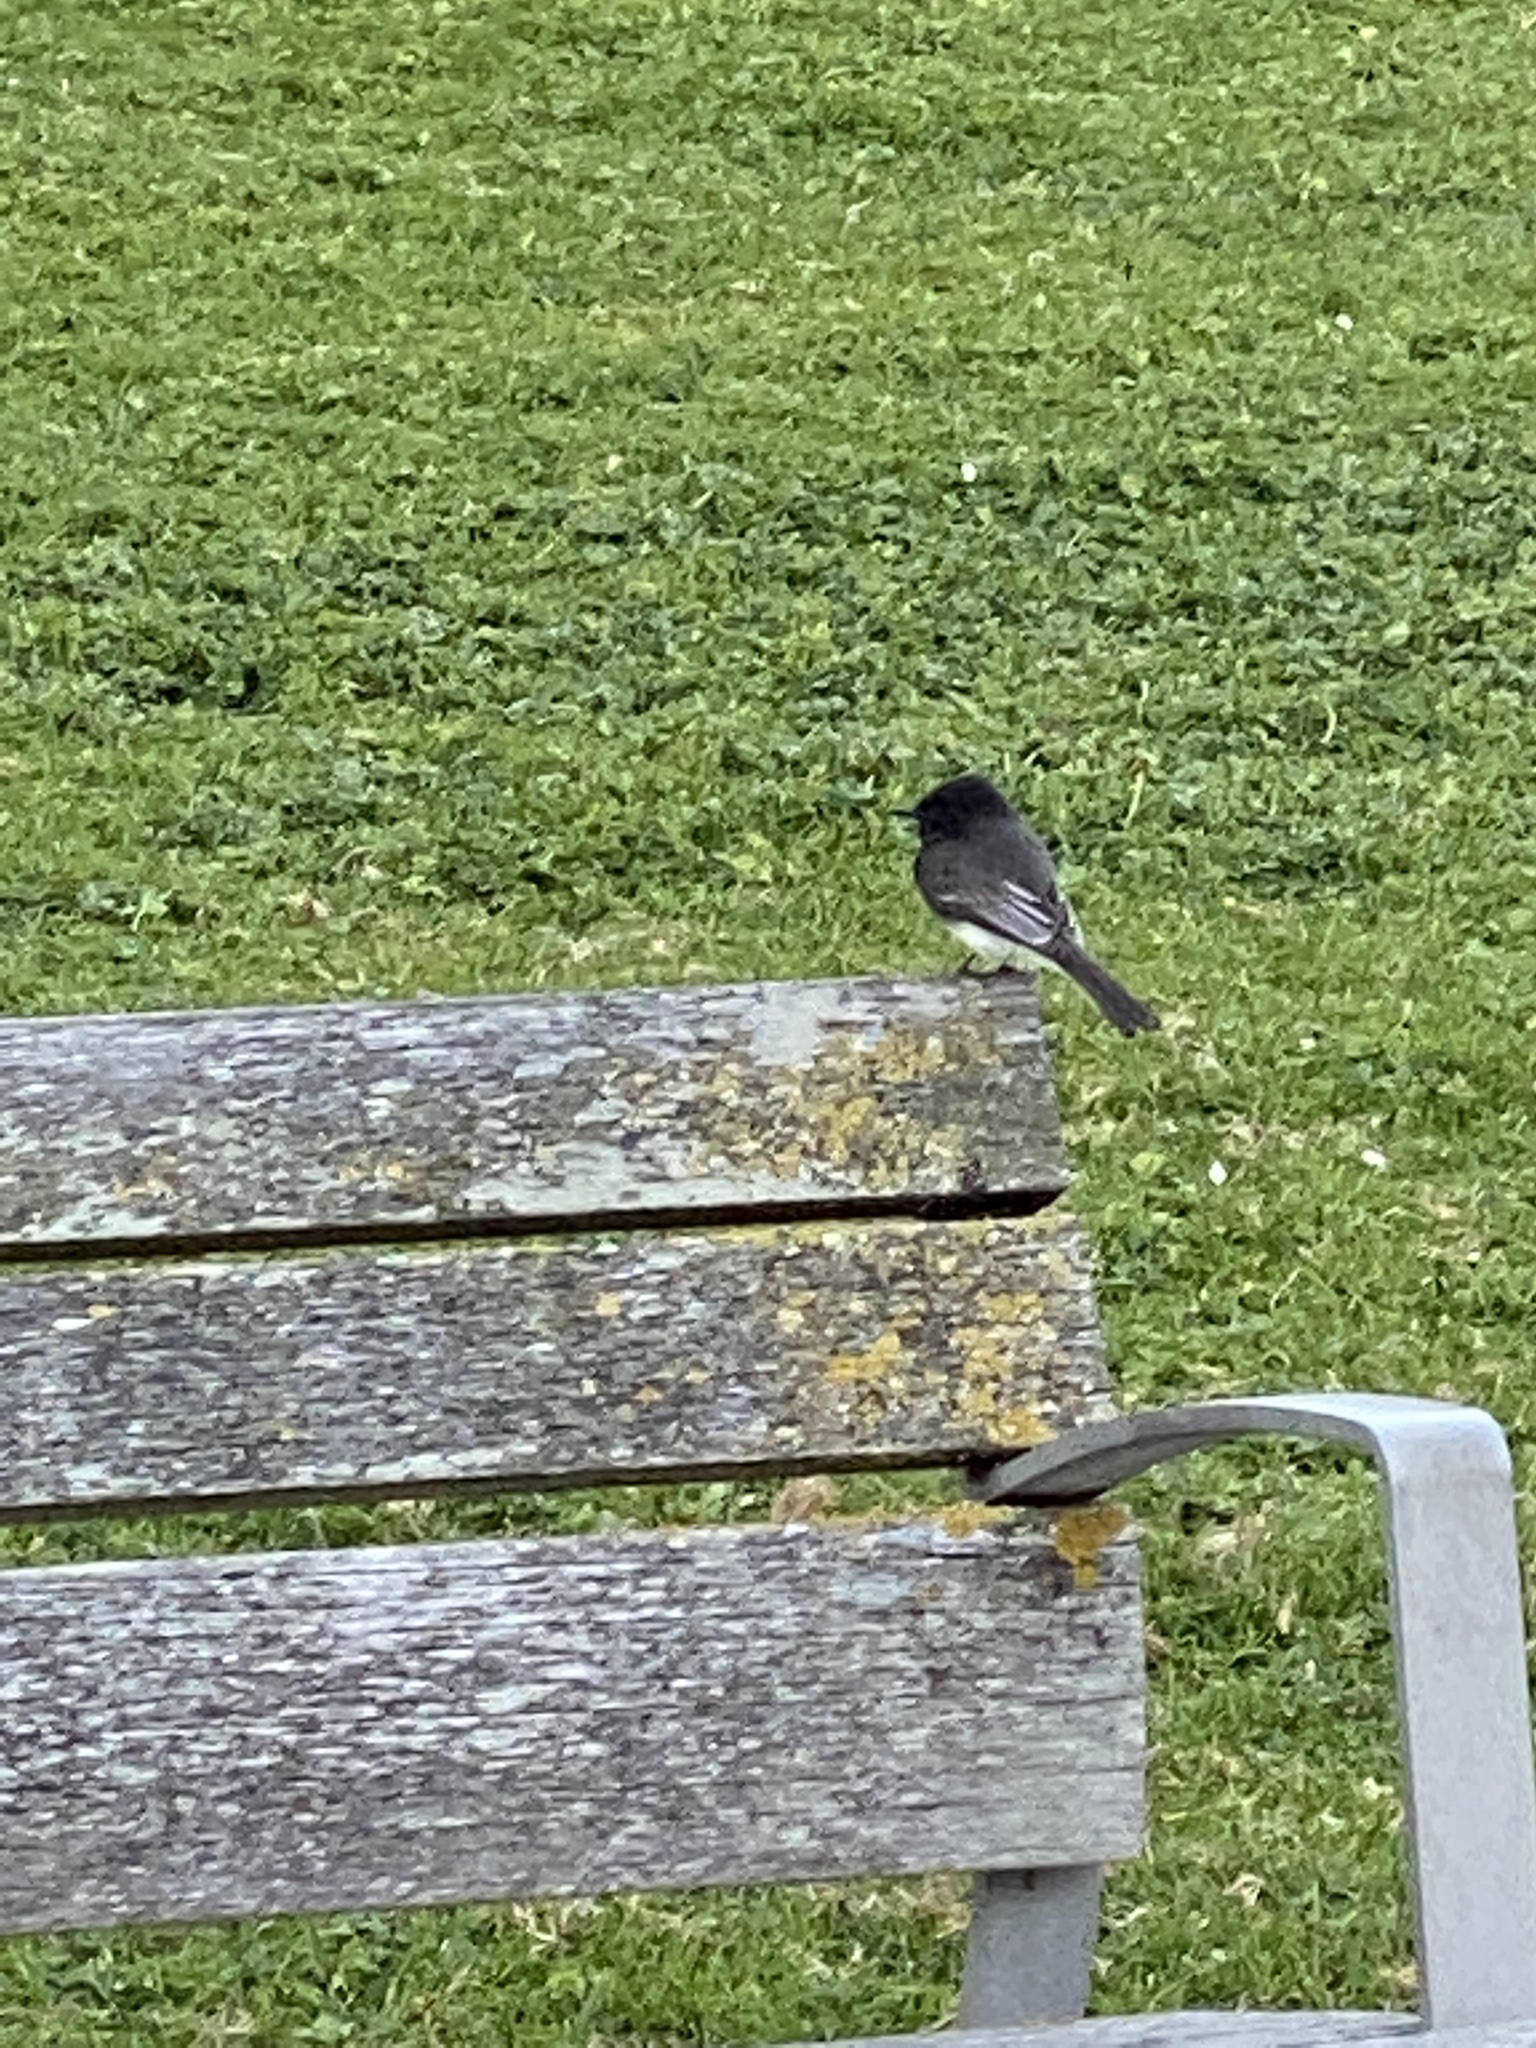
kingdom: Animalia
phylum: Chordata
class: Aves
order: Passeriformes
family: Tyrannidae
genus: Sayornis
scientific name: Sayornis nigricans
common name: Black phoebe
